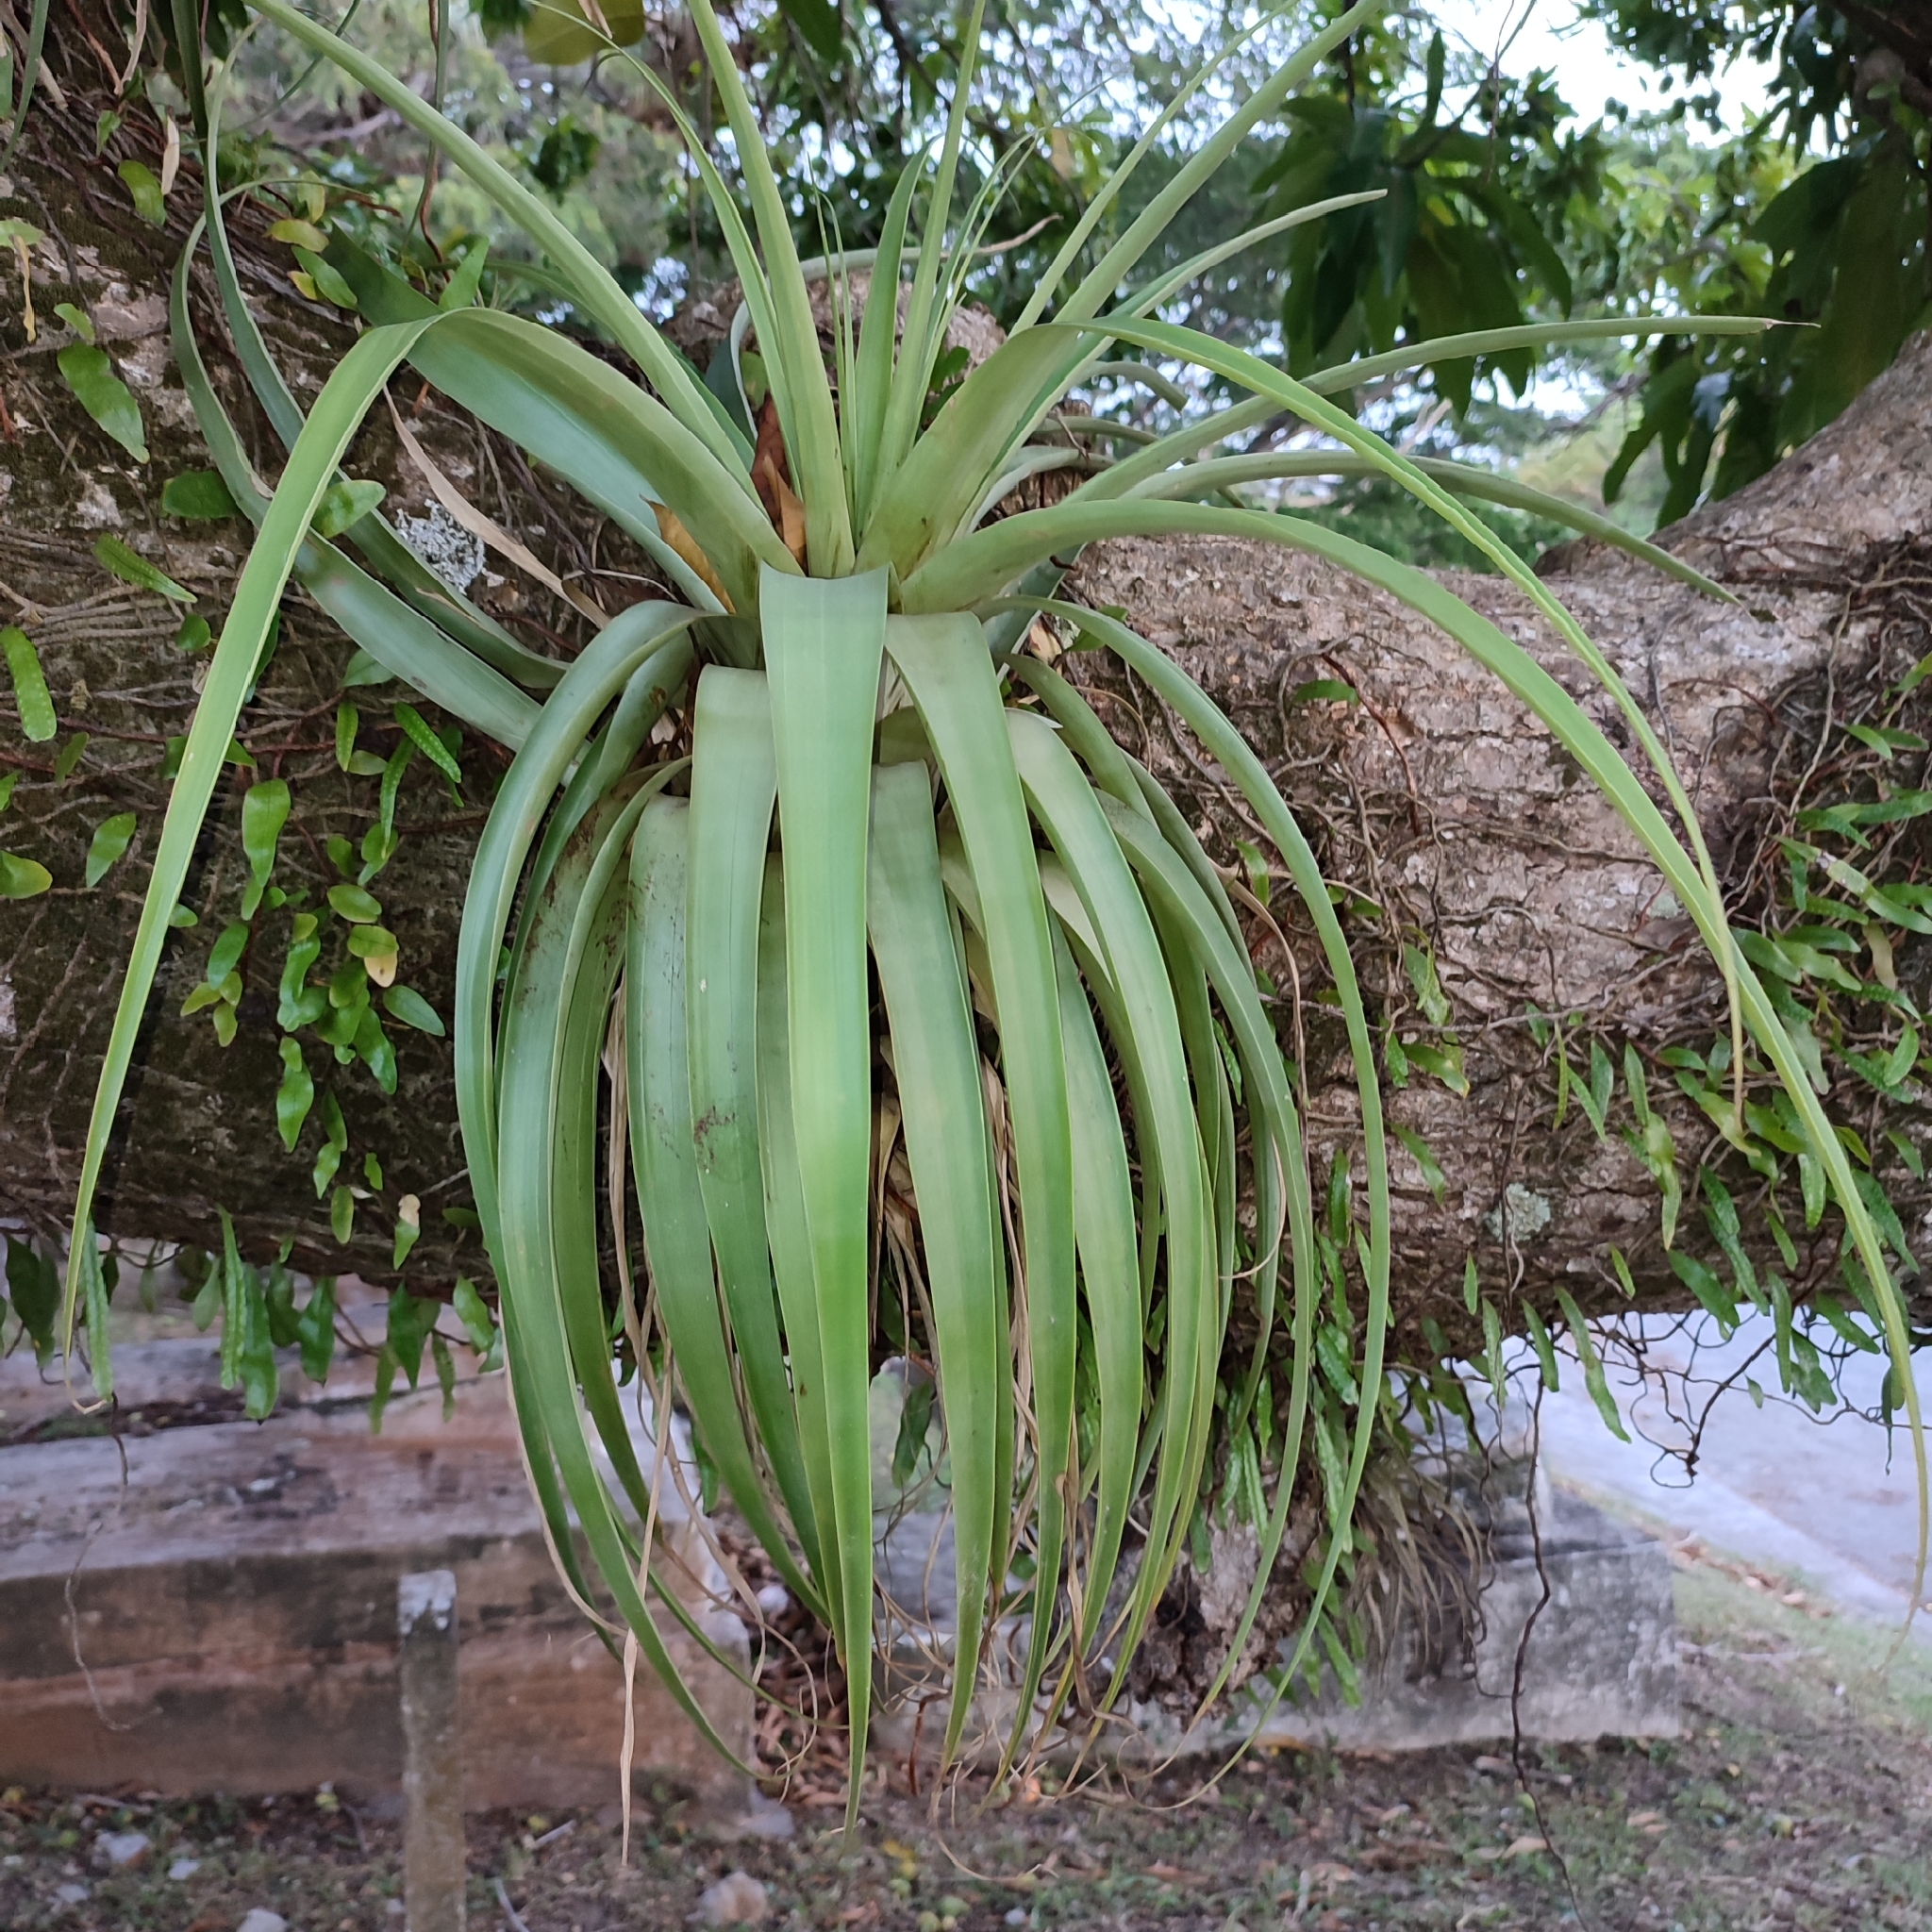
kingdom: Plantae
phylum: Tracheophyta
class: Liliopsida
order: Poales
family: Bromeliaceae
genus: Tillandsia
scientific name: Tillandsia utriculata
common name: Wild pine
